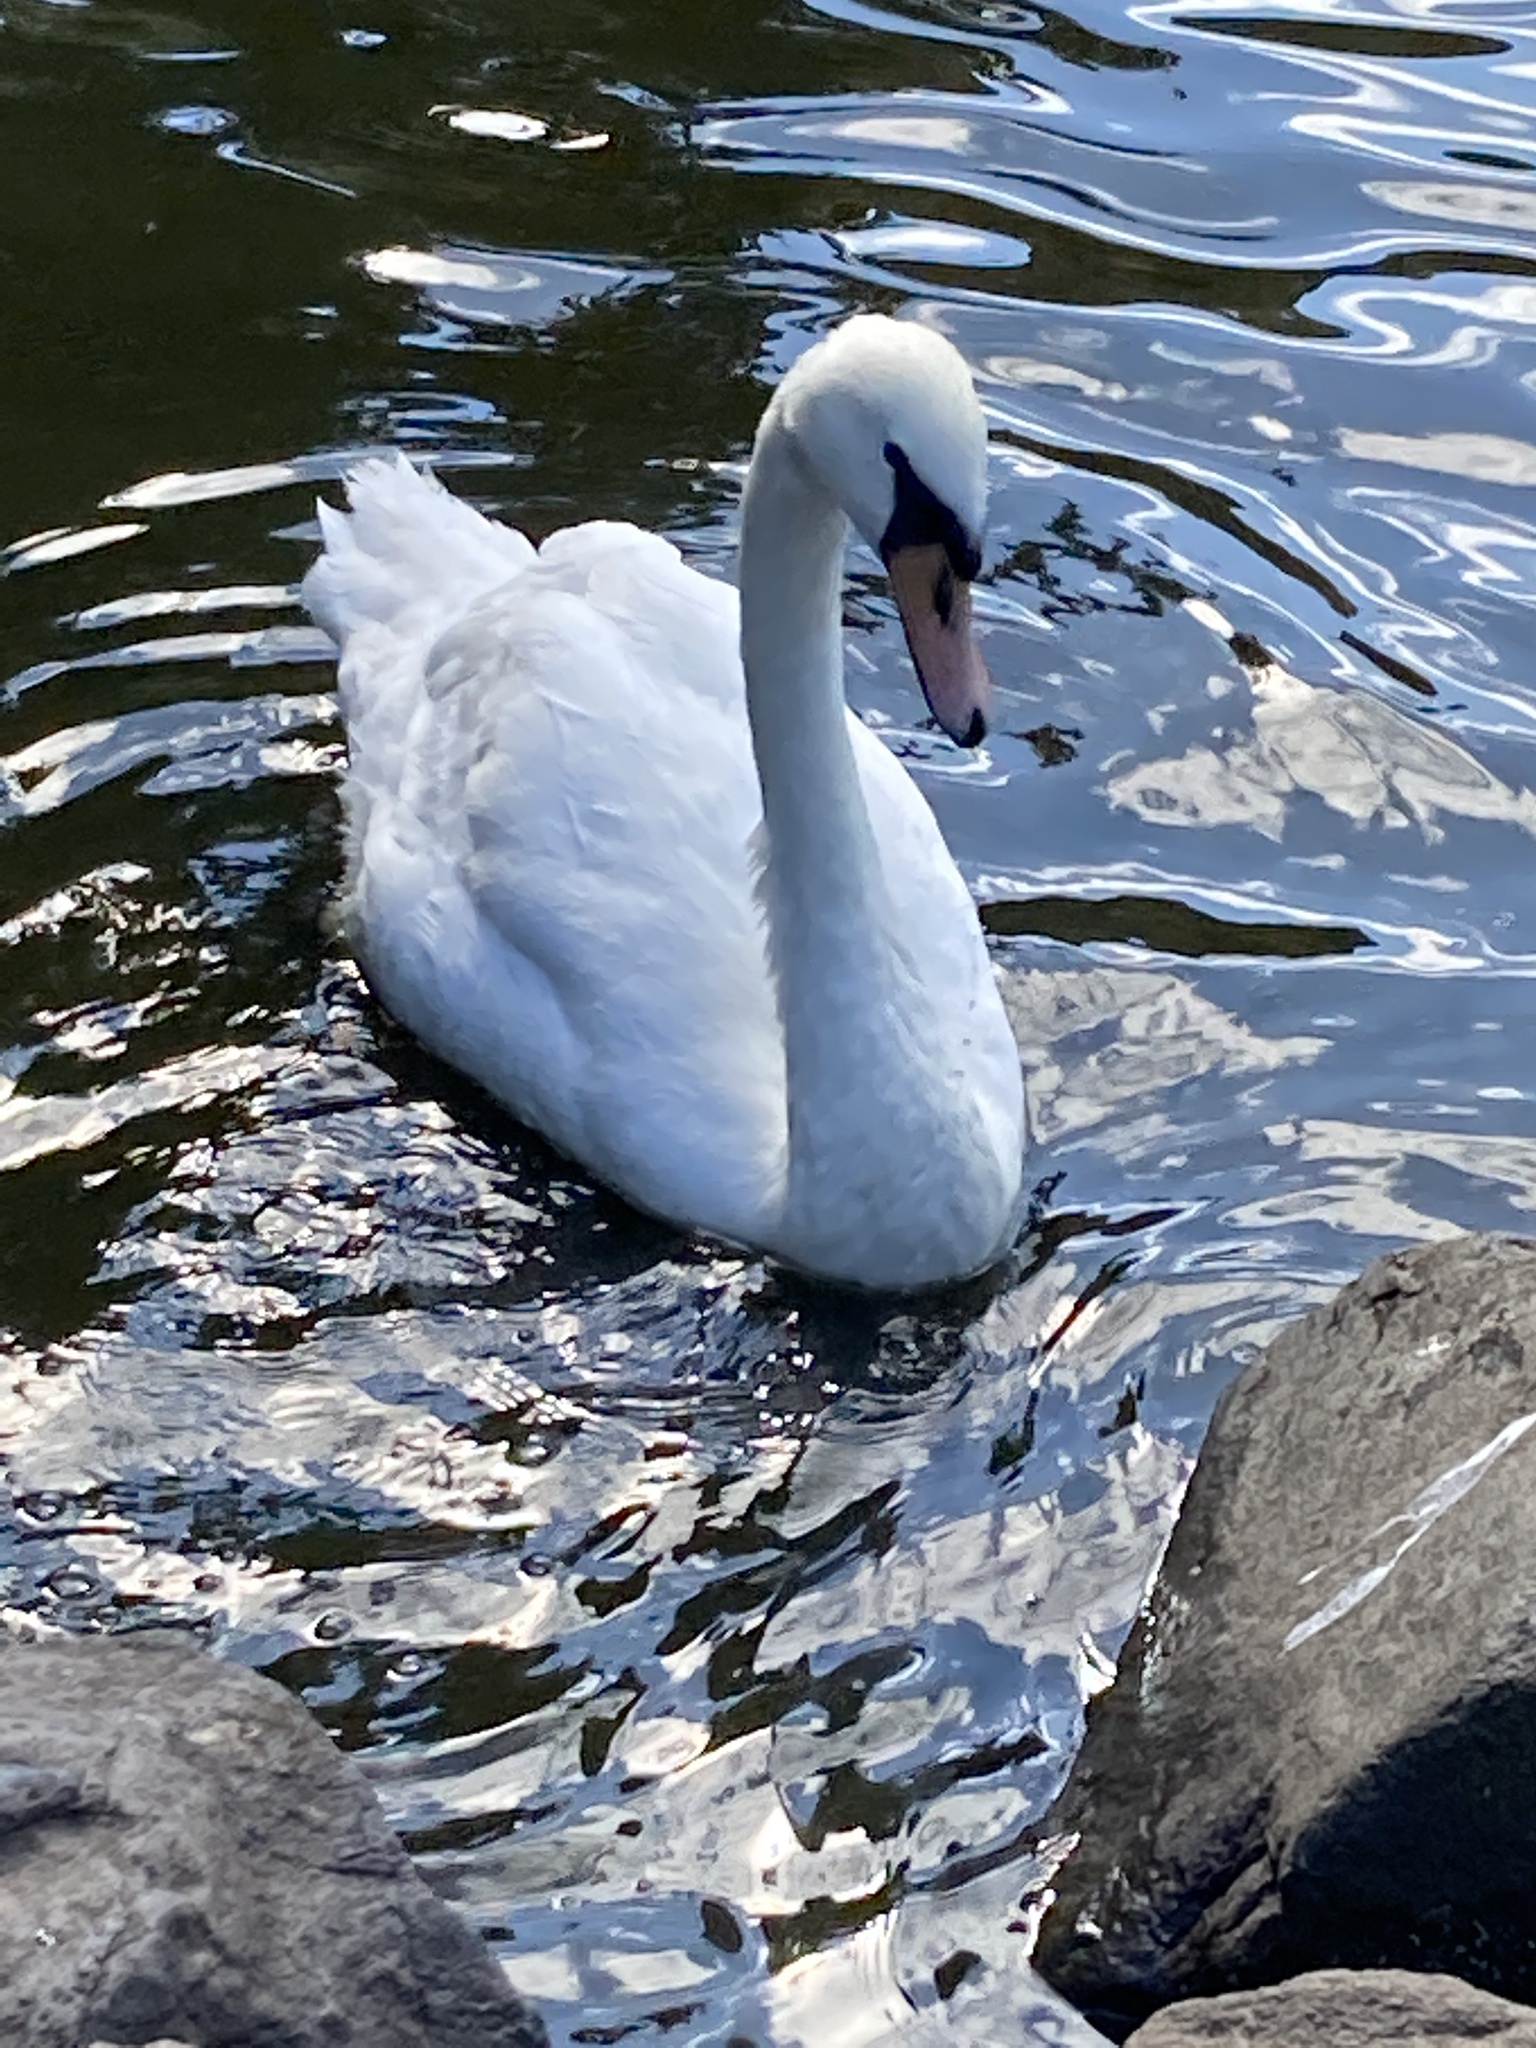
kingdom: Animalia
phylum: Chordata
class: Aves
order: Anseriformes
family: Anatidae
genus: Cygnus
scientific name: Cygnus olor
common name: Mute swan
